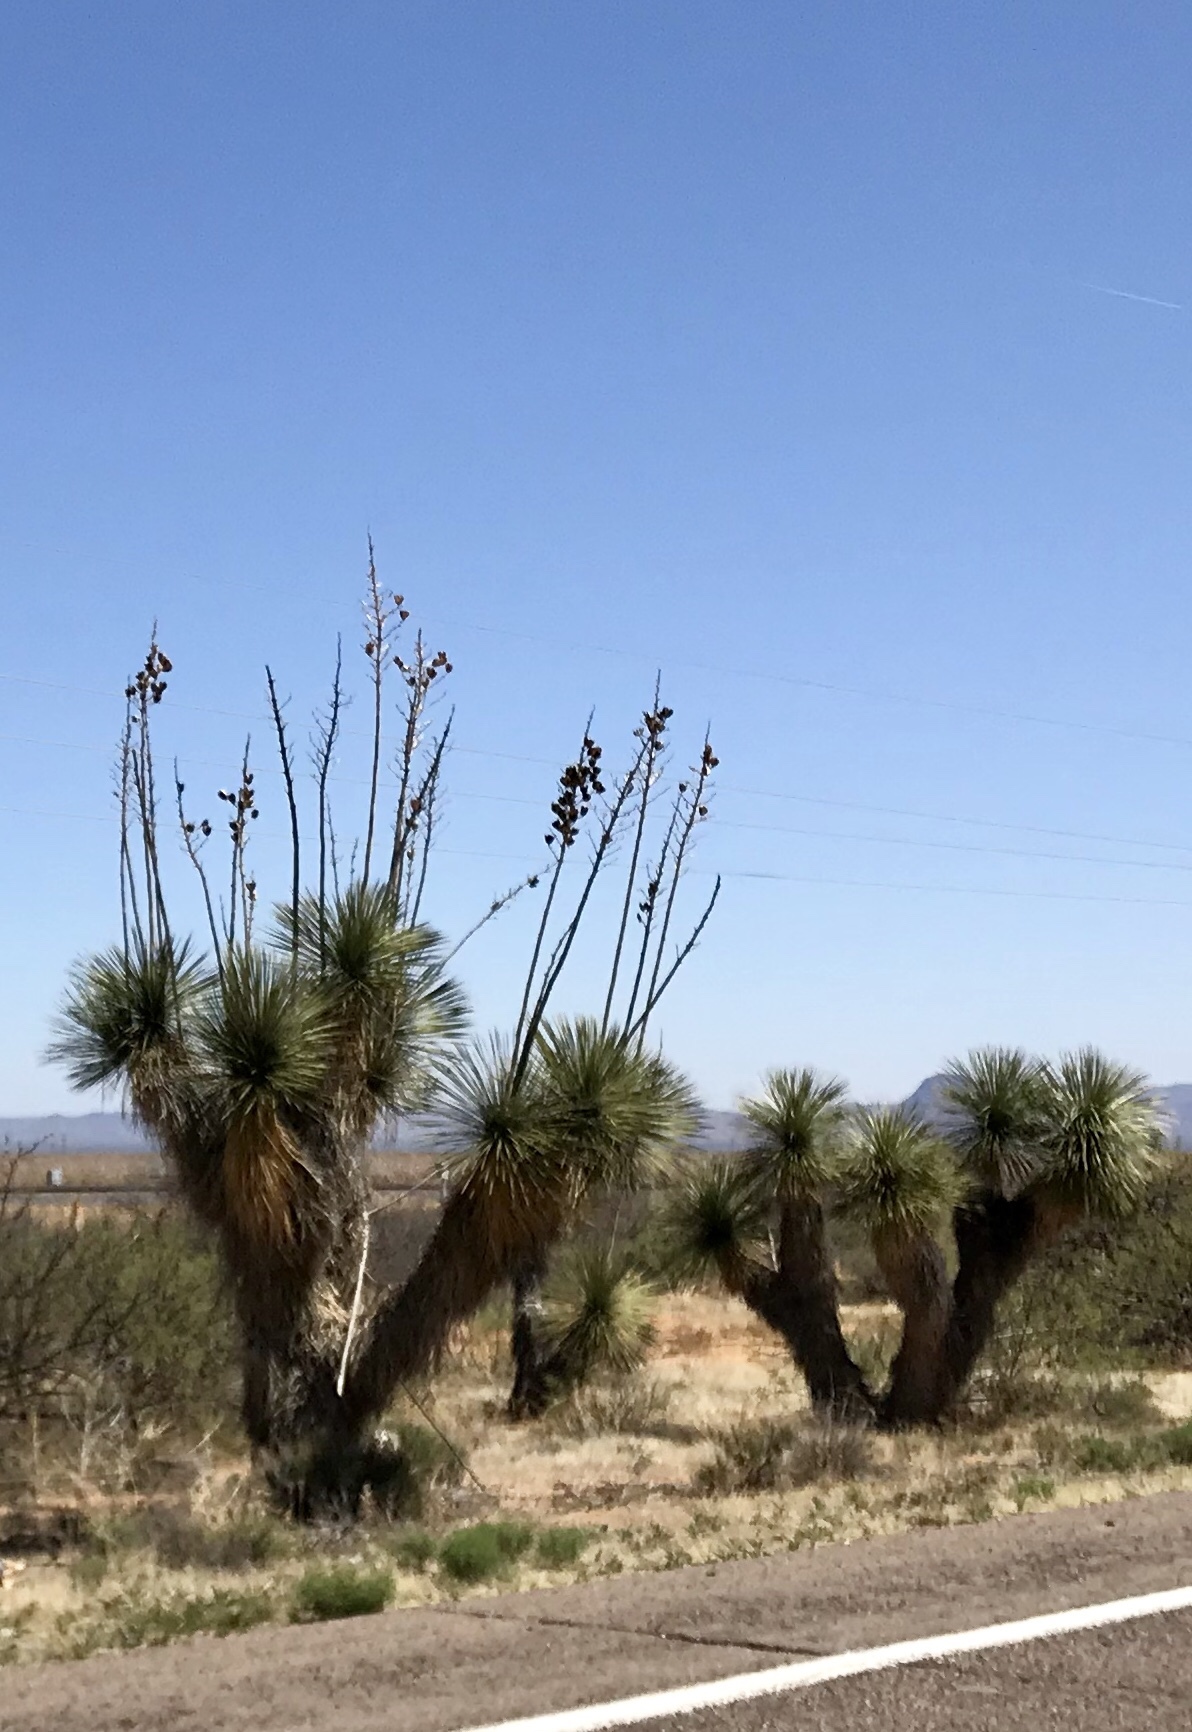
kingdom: Plantae
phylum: Tracheophyta
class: Liliopsida
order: Asparagales
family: Asparagaceae
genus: Yucca
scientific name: Yucca elata
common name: Palmella
